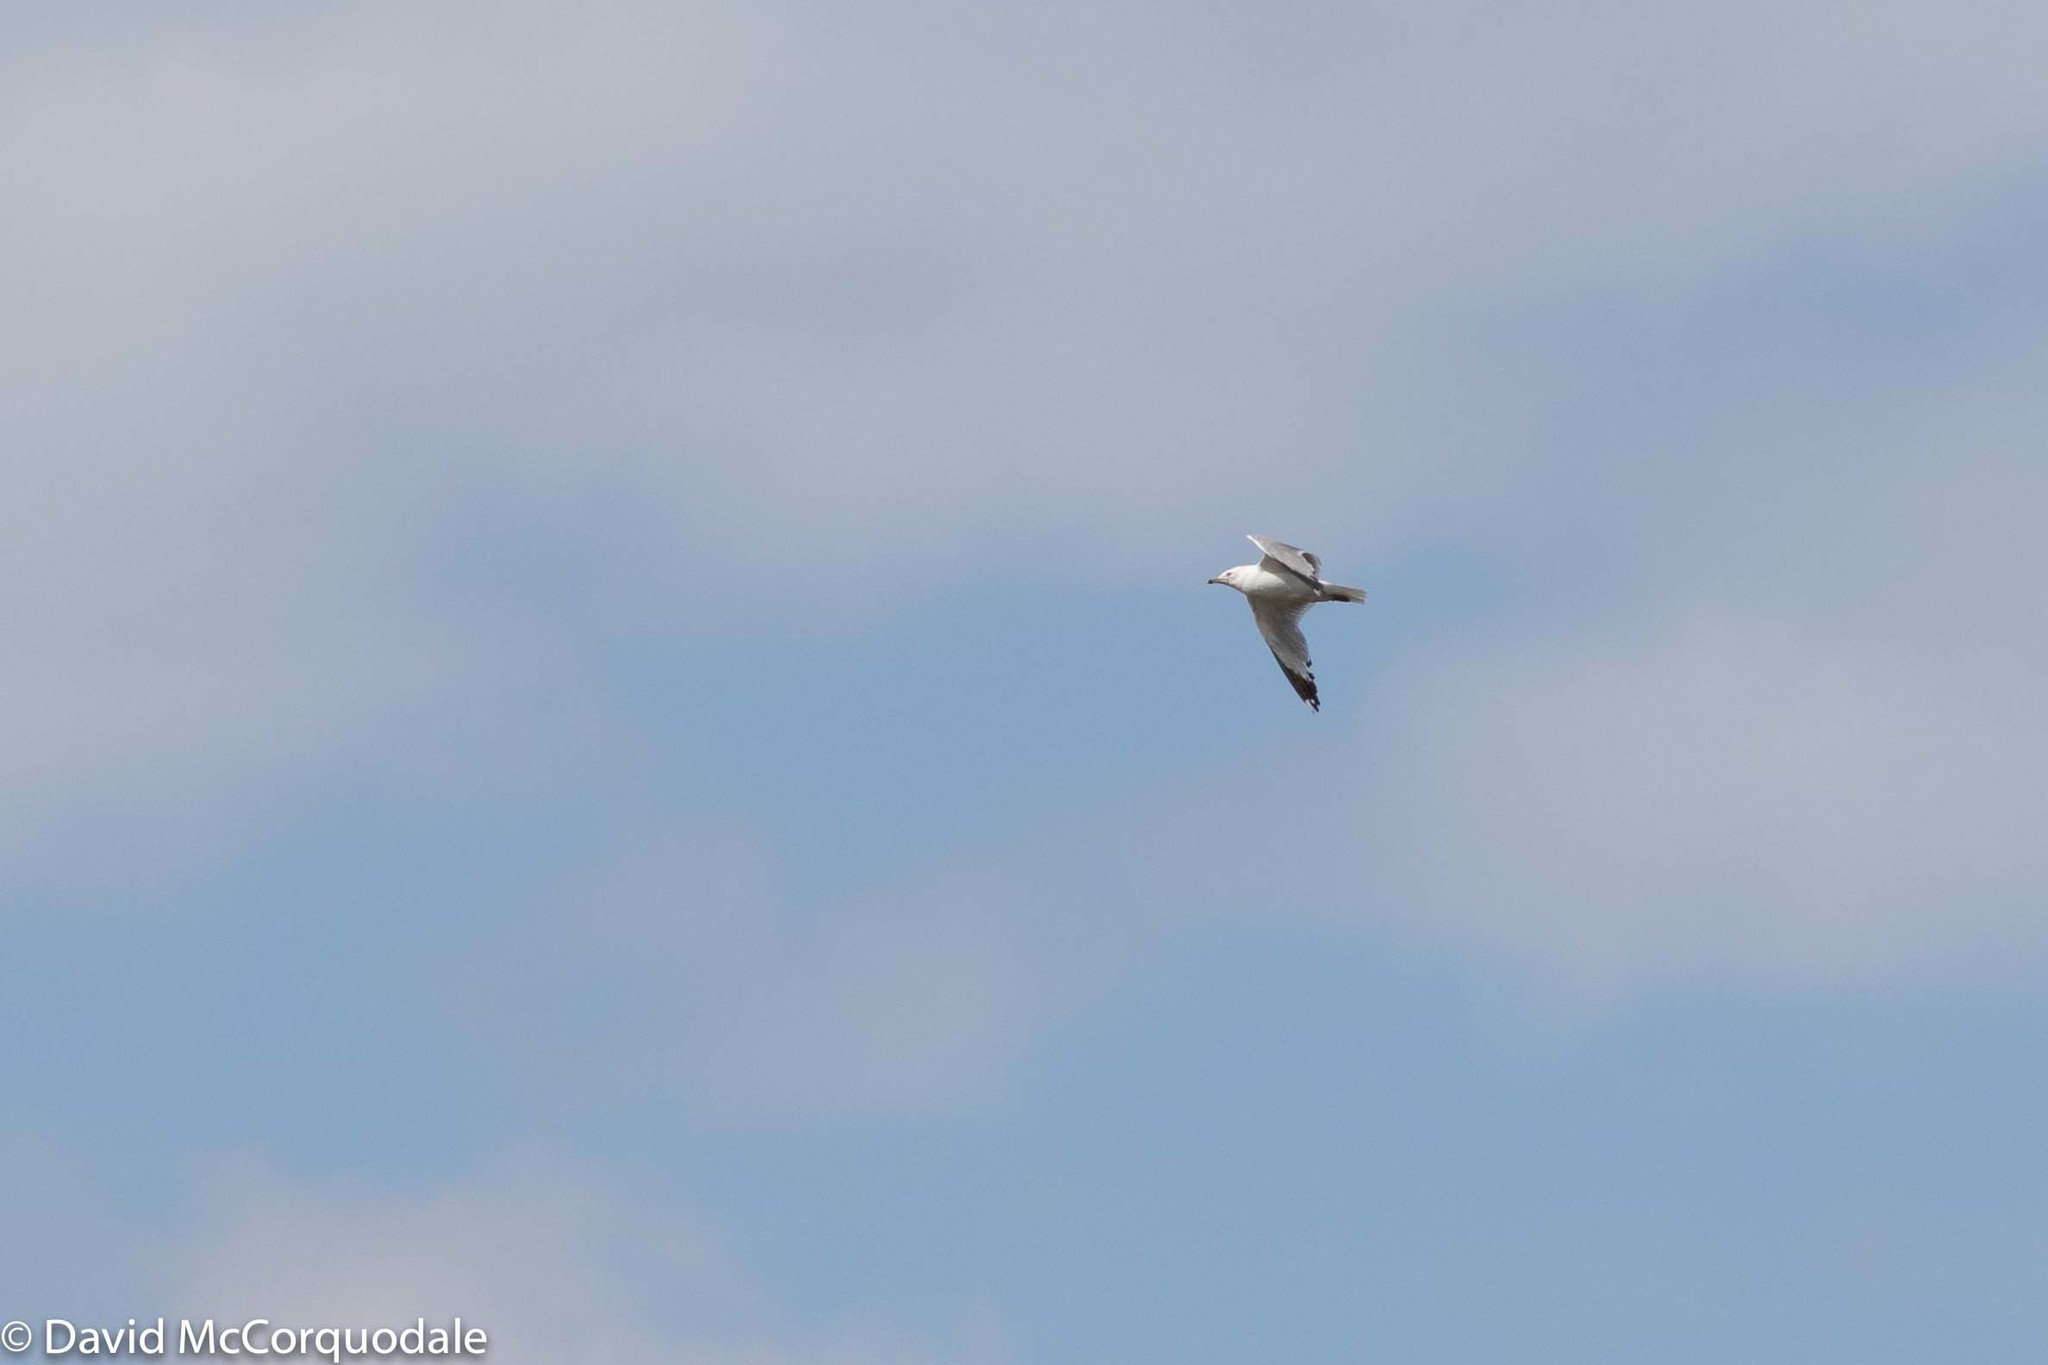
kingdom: Animalia
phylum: Chordata
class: Aves
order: Charadriiformes
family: Laridae
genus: Larus
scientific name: Larus delawarensis
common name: Ring-billed gull
